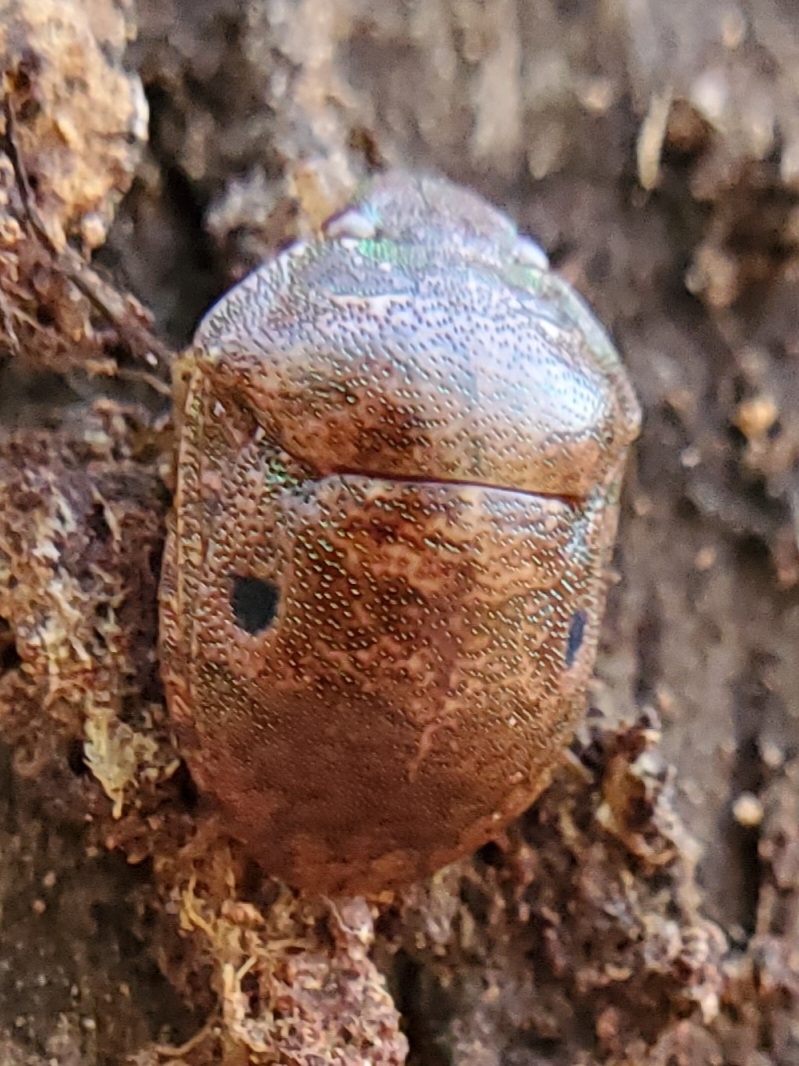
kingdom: Animalia
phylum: Arthropoda
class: Insecta
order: Hemiptera
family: Scutelleridae
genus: Diolcus
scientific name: Diolcus chrysorrhoeus
